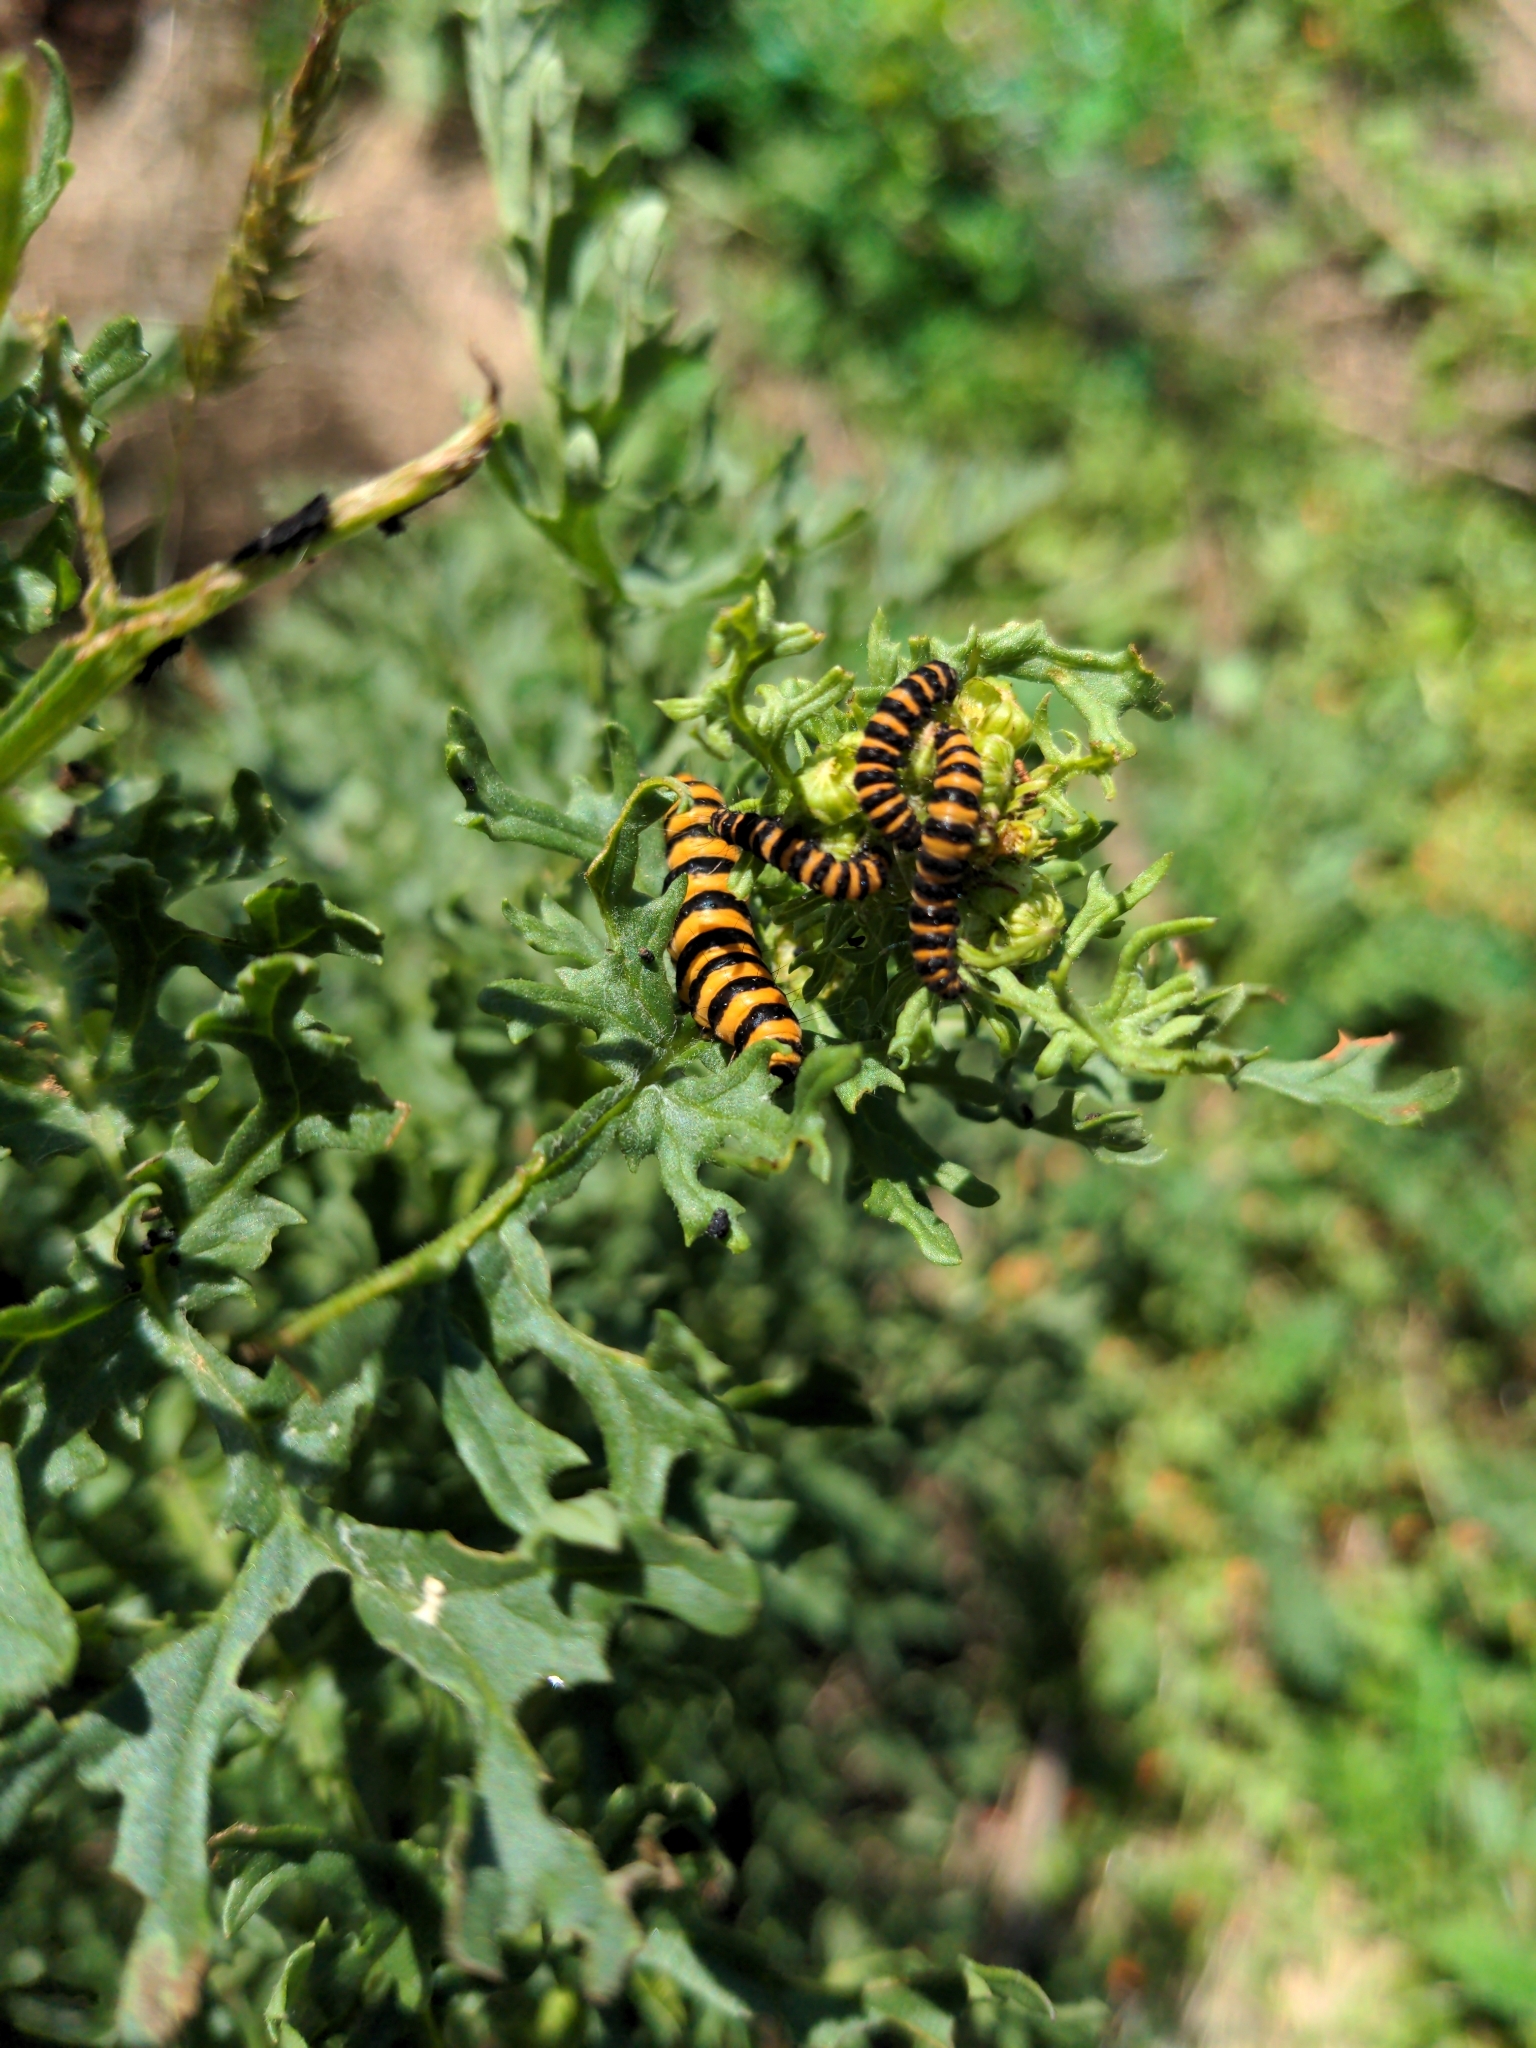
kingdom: Animalia
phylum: Arthropoda
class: Insecta
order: Lepidoptera
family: Erebidae
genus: Tyria
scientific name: Tyria jacobaeae
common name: Cinnabar
